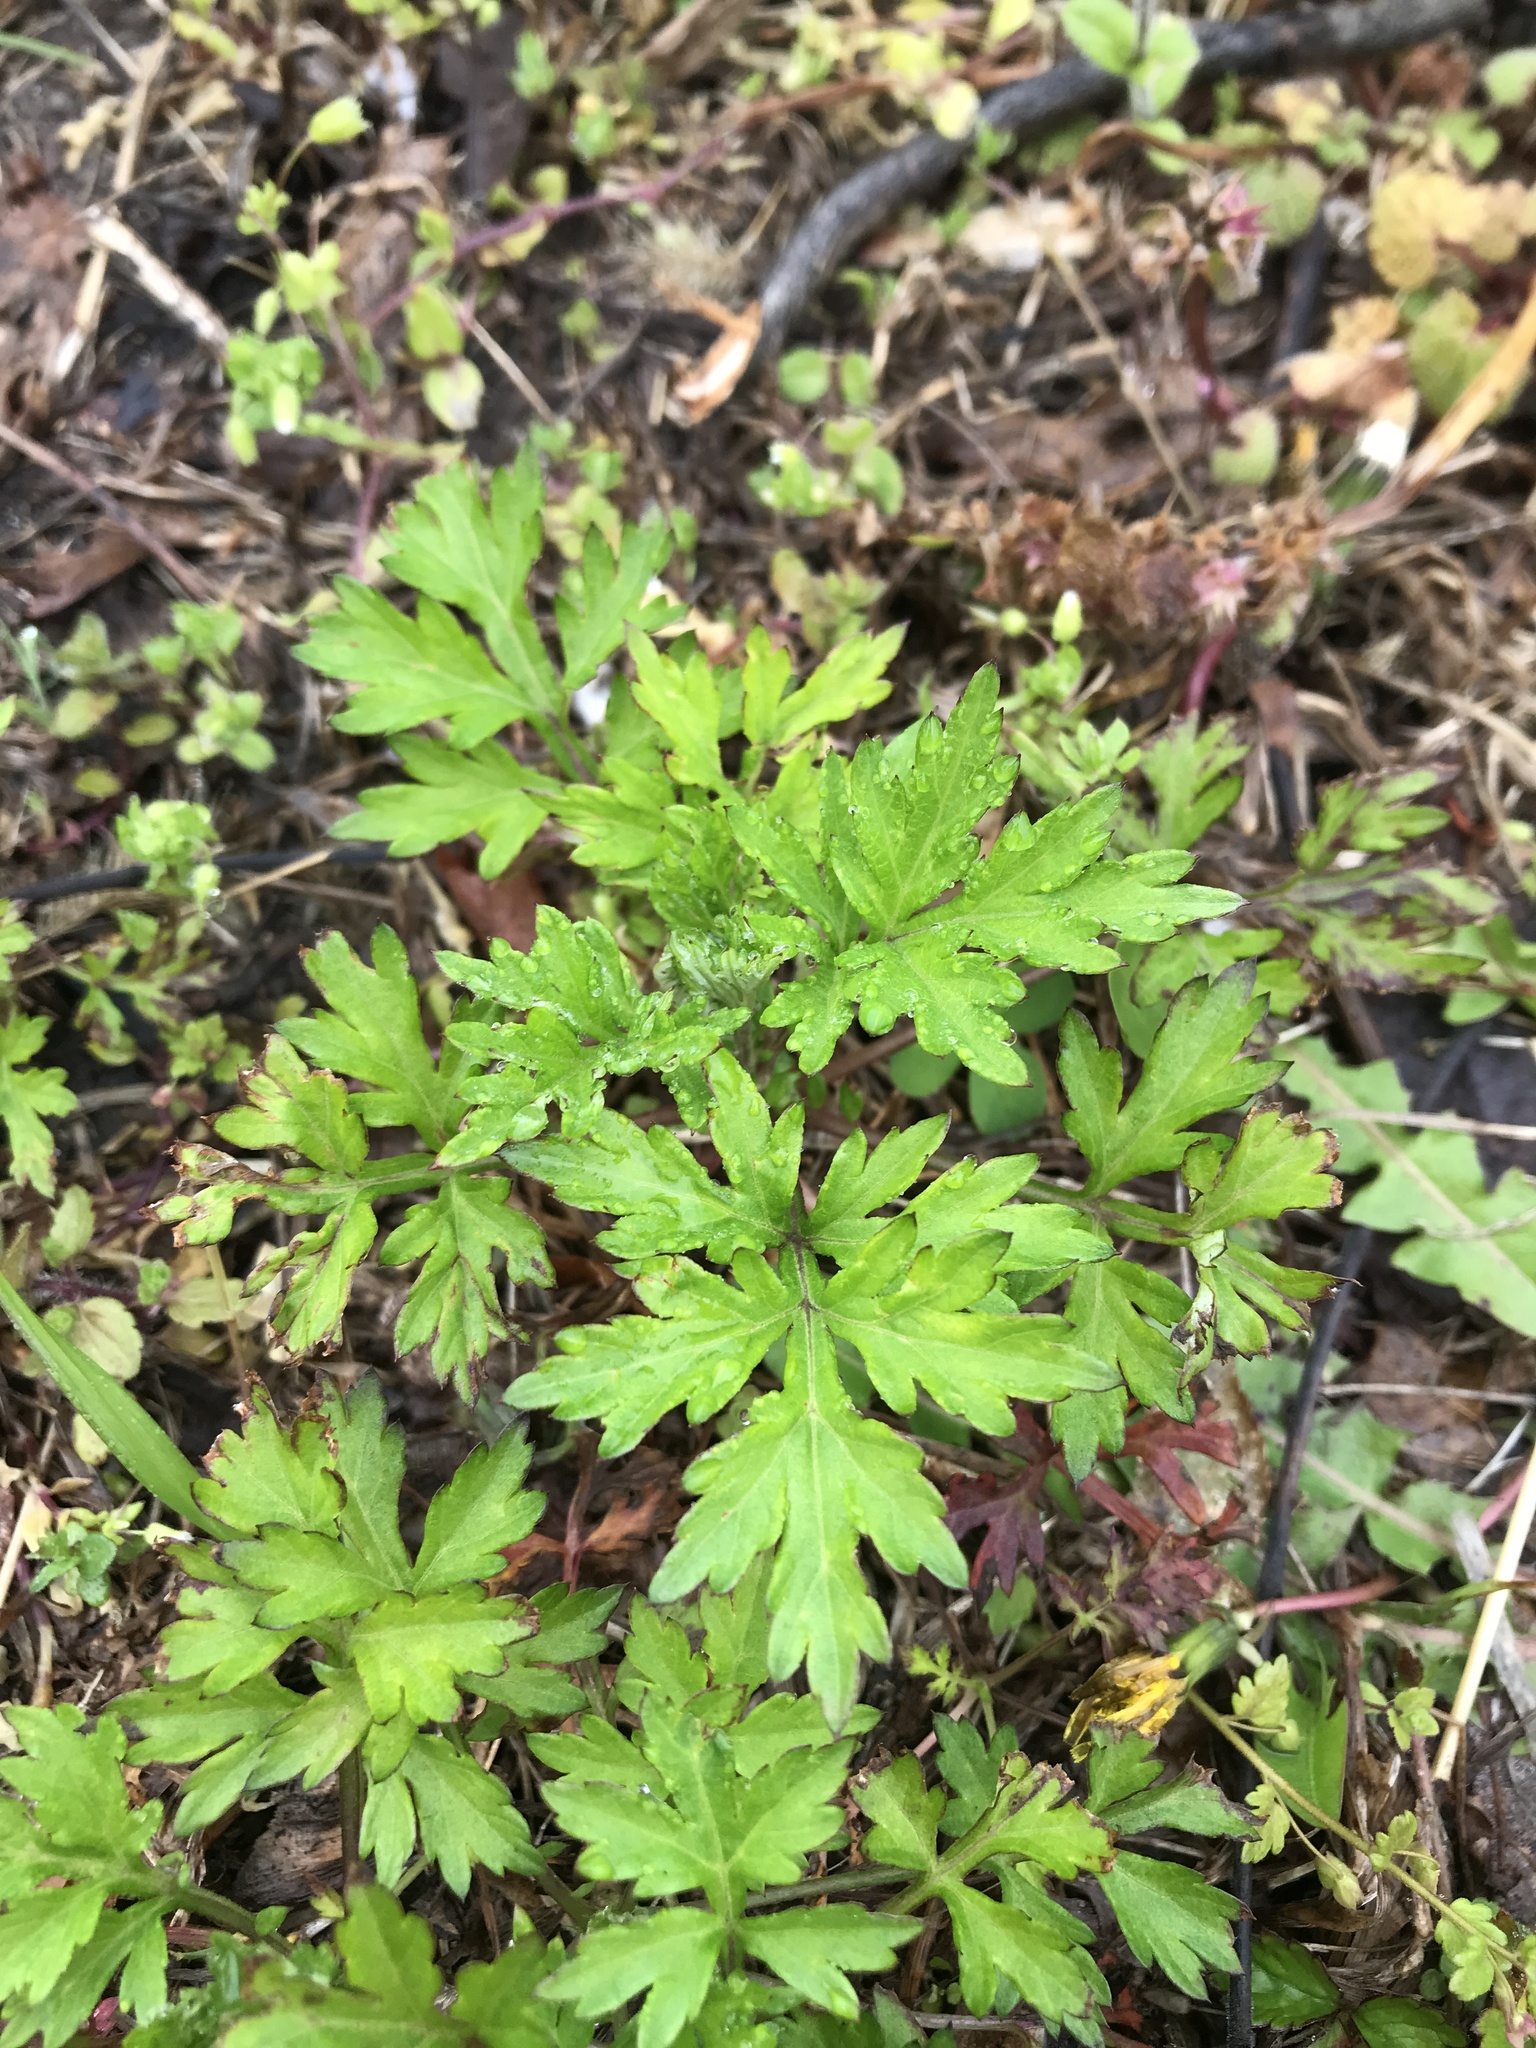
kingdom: Plantae
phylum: Tracheophyta
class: Magnoliopsida
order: Asterales
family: Asteraceae
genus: Artemisia
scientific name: Artemisia vulgaris
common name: Mugwort
